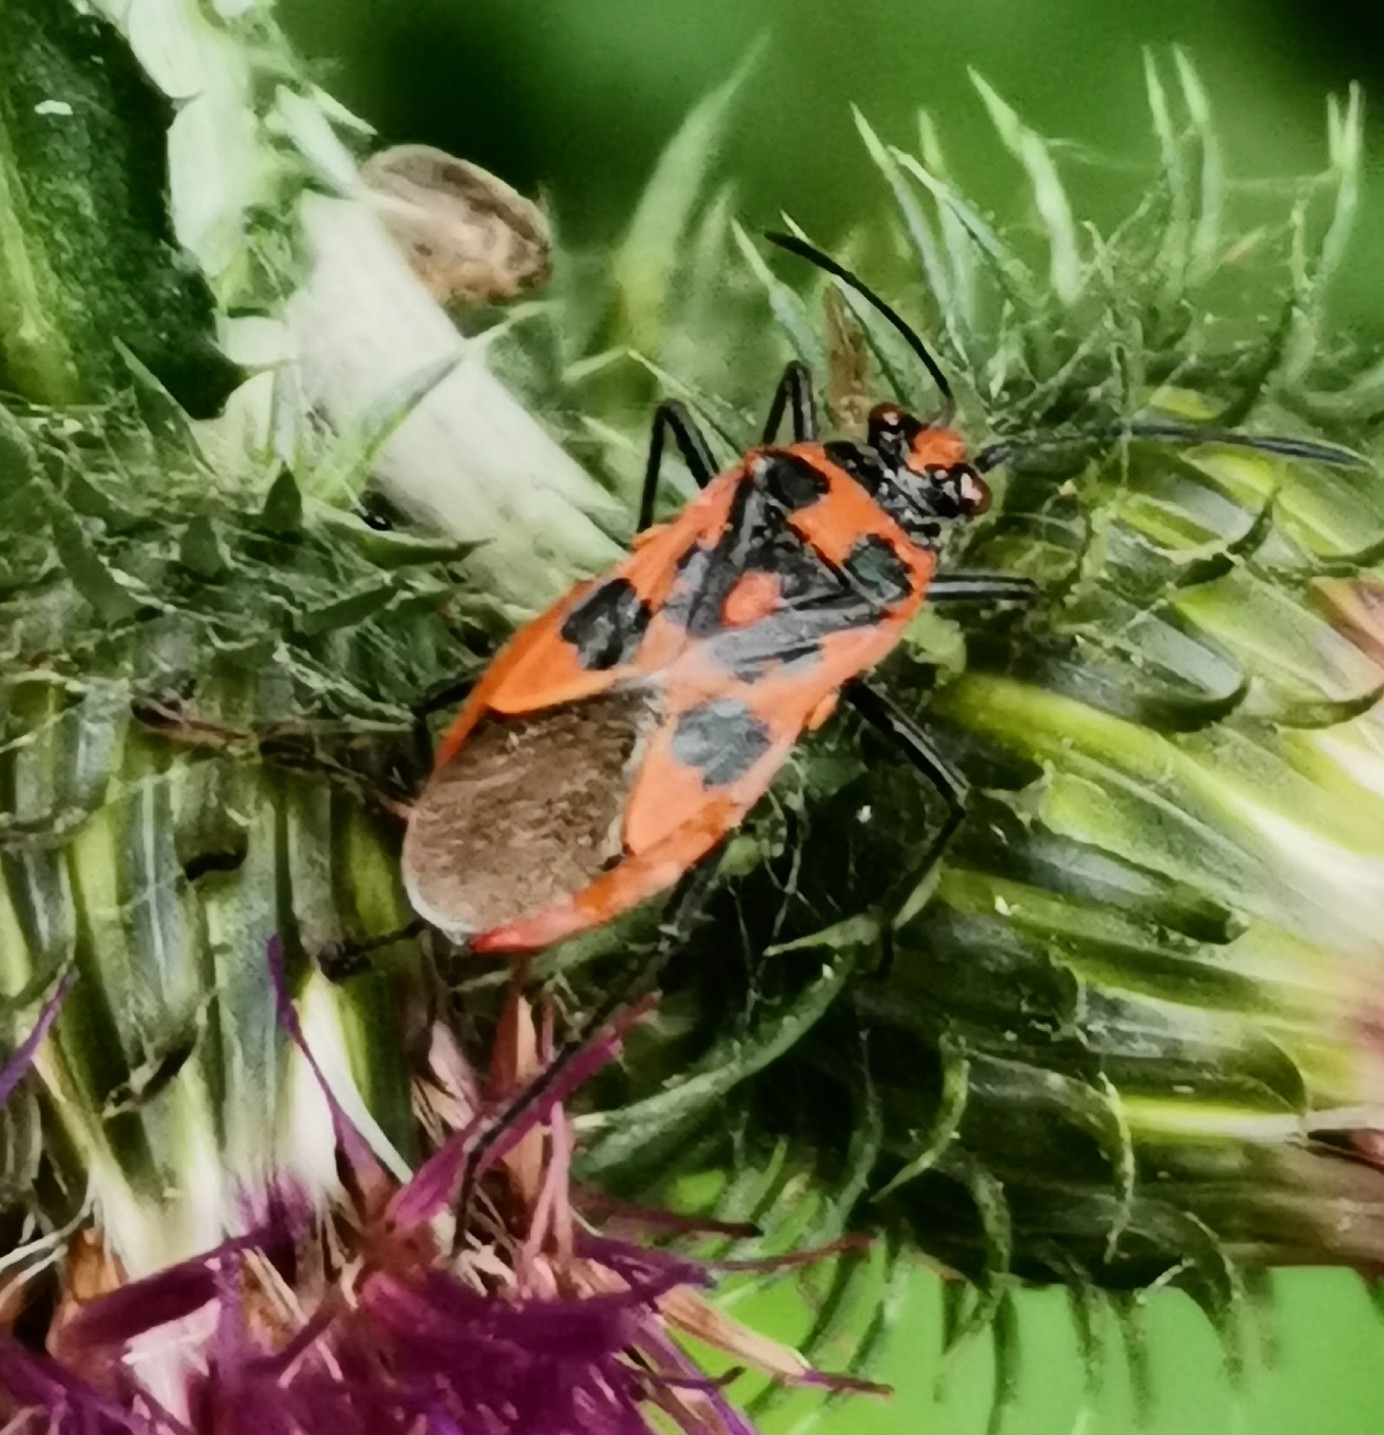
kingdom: Animalia
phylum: Arthropoda
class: Insecta
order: Hemiptera
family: Rhopalidae
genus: Corizus
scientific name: Corizus hyoscyami
